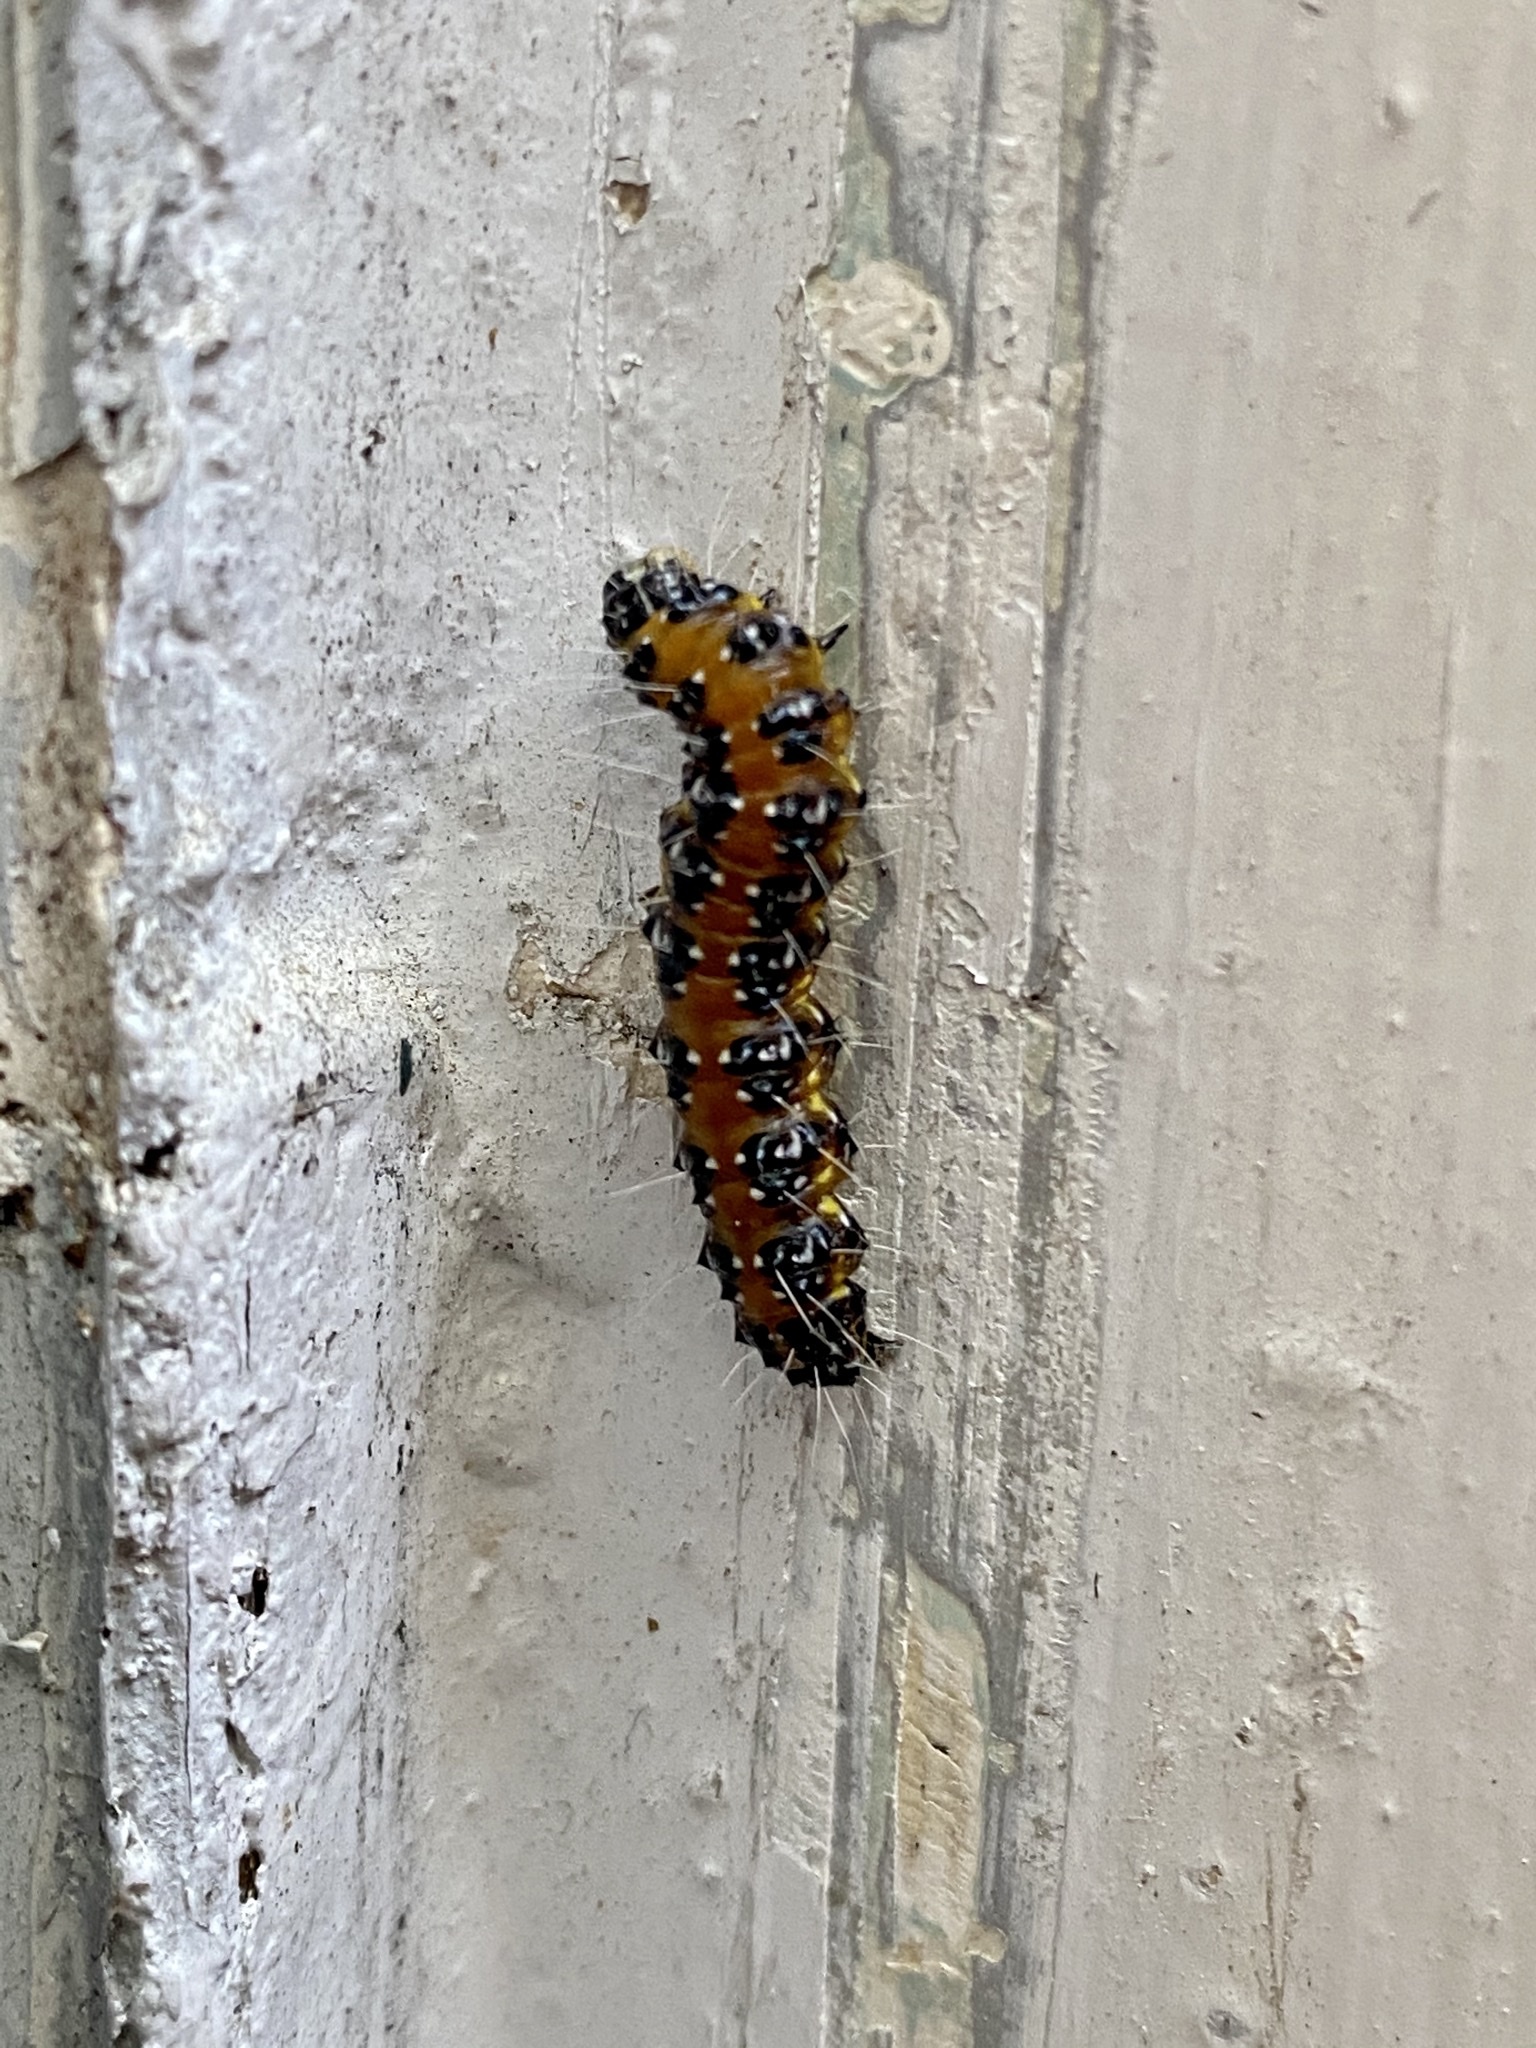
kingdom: Animalia
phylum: Arthropoda
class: Insecta
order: Lepidoptera
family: Crambidae
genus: Uresiphita
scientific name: Uresiphita reversalis
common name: Genista broom moth
